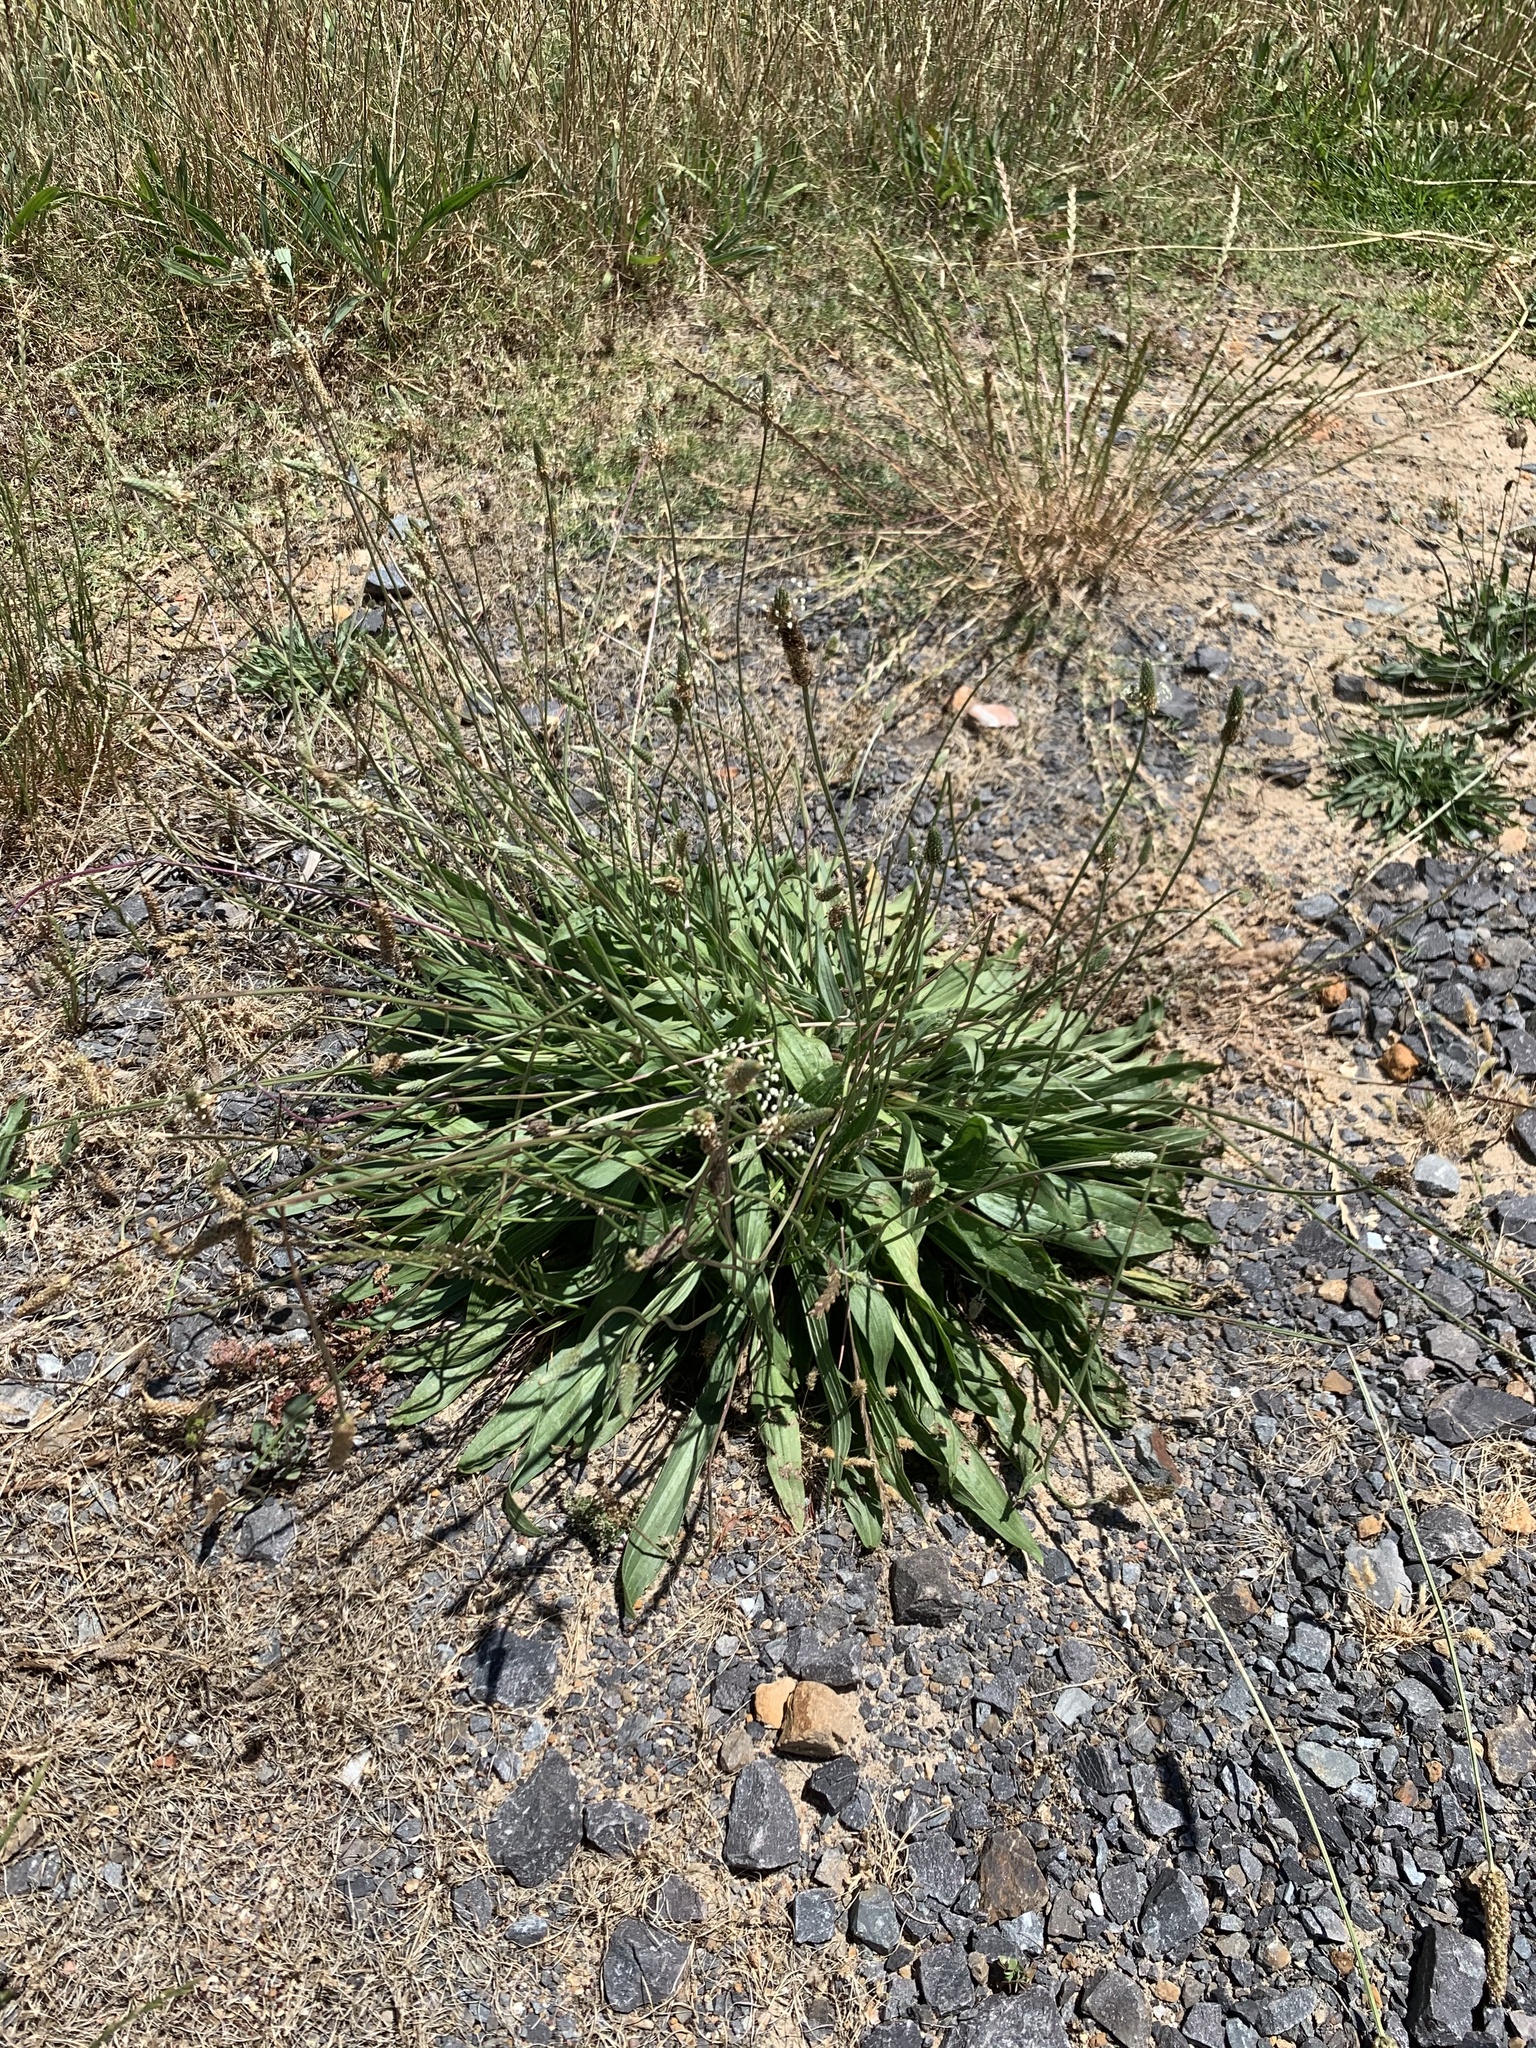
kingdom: Plantae
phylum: Tracheophyta
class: Magnoliopsida
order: Lamiales
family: Plantaginaceae
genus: Plantago
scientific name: Plantago lanceolata
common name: Ribwort plantain
